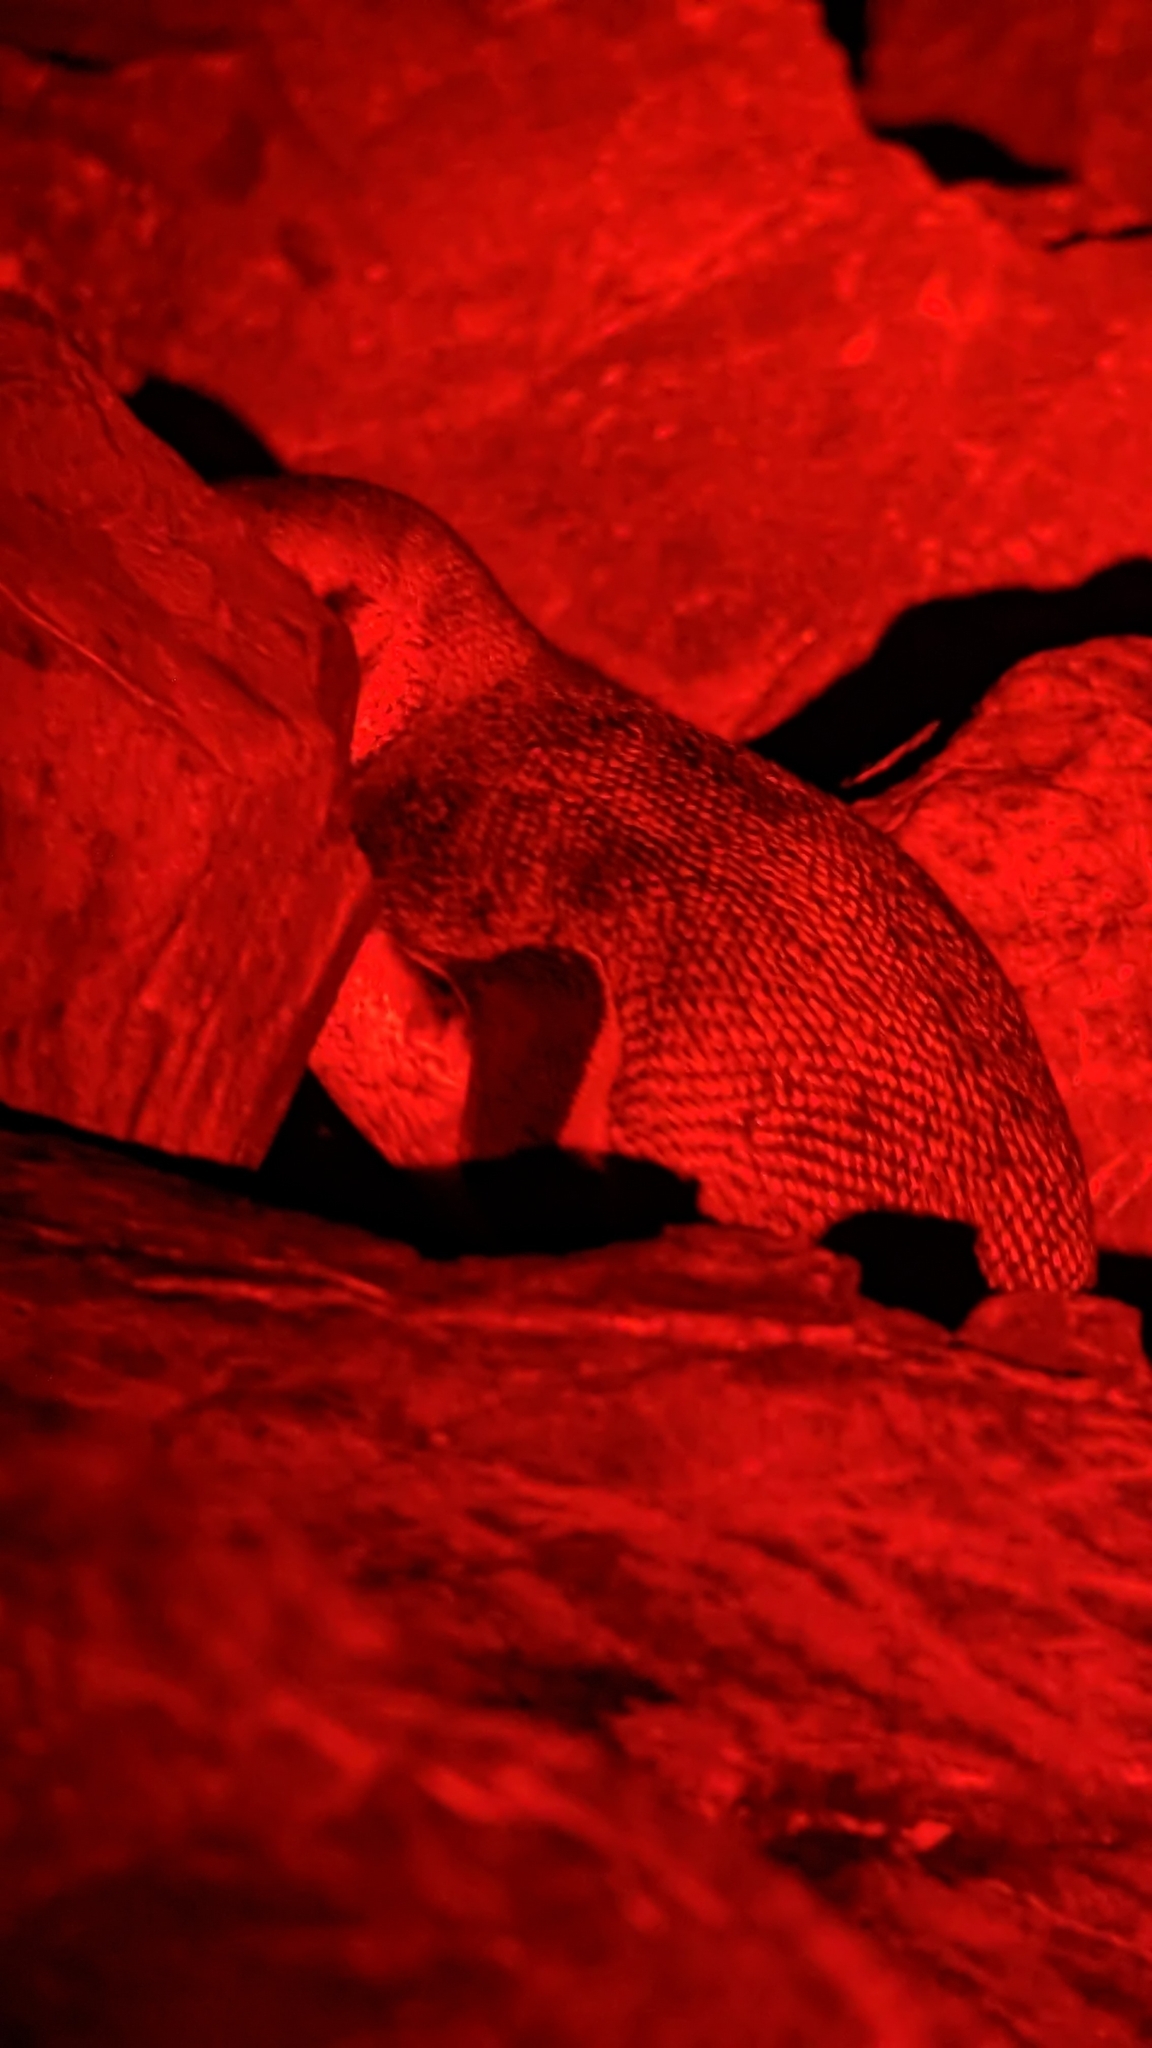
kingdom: Animalia
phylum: Chordata
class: Aves
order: Sphenisciformes
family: Spheniscidae
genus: Eudyptula
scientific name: Eudyptula minor
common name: Little penguin
